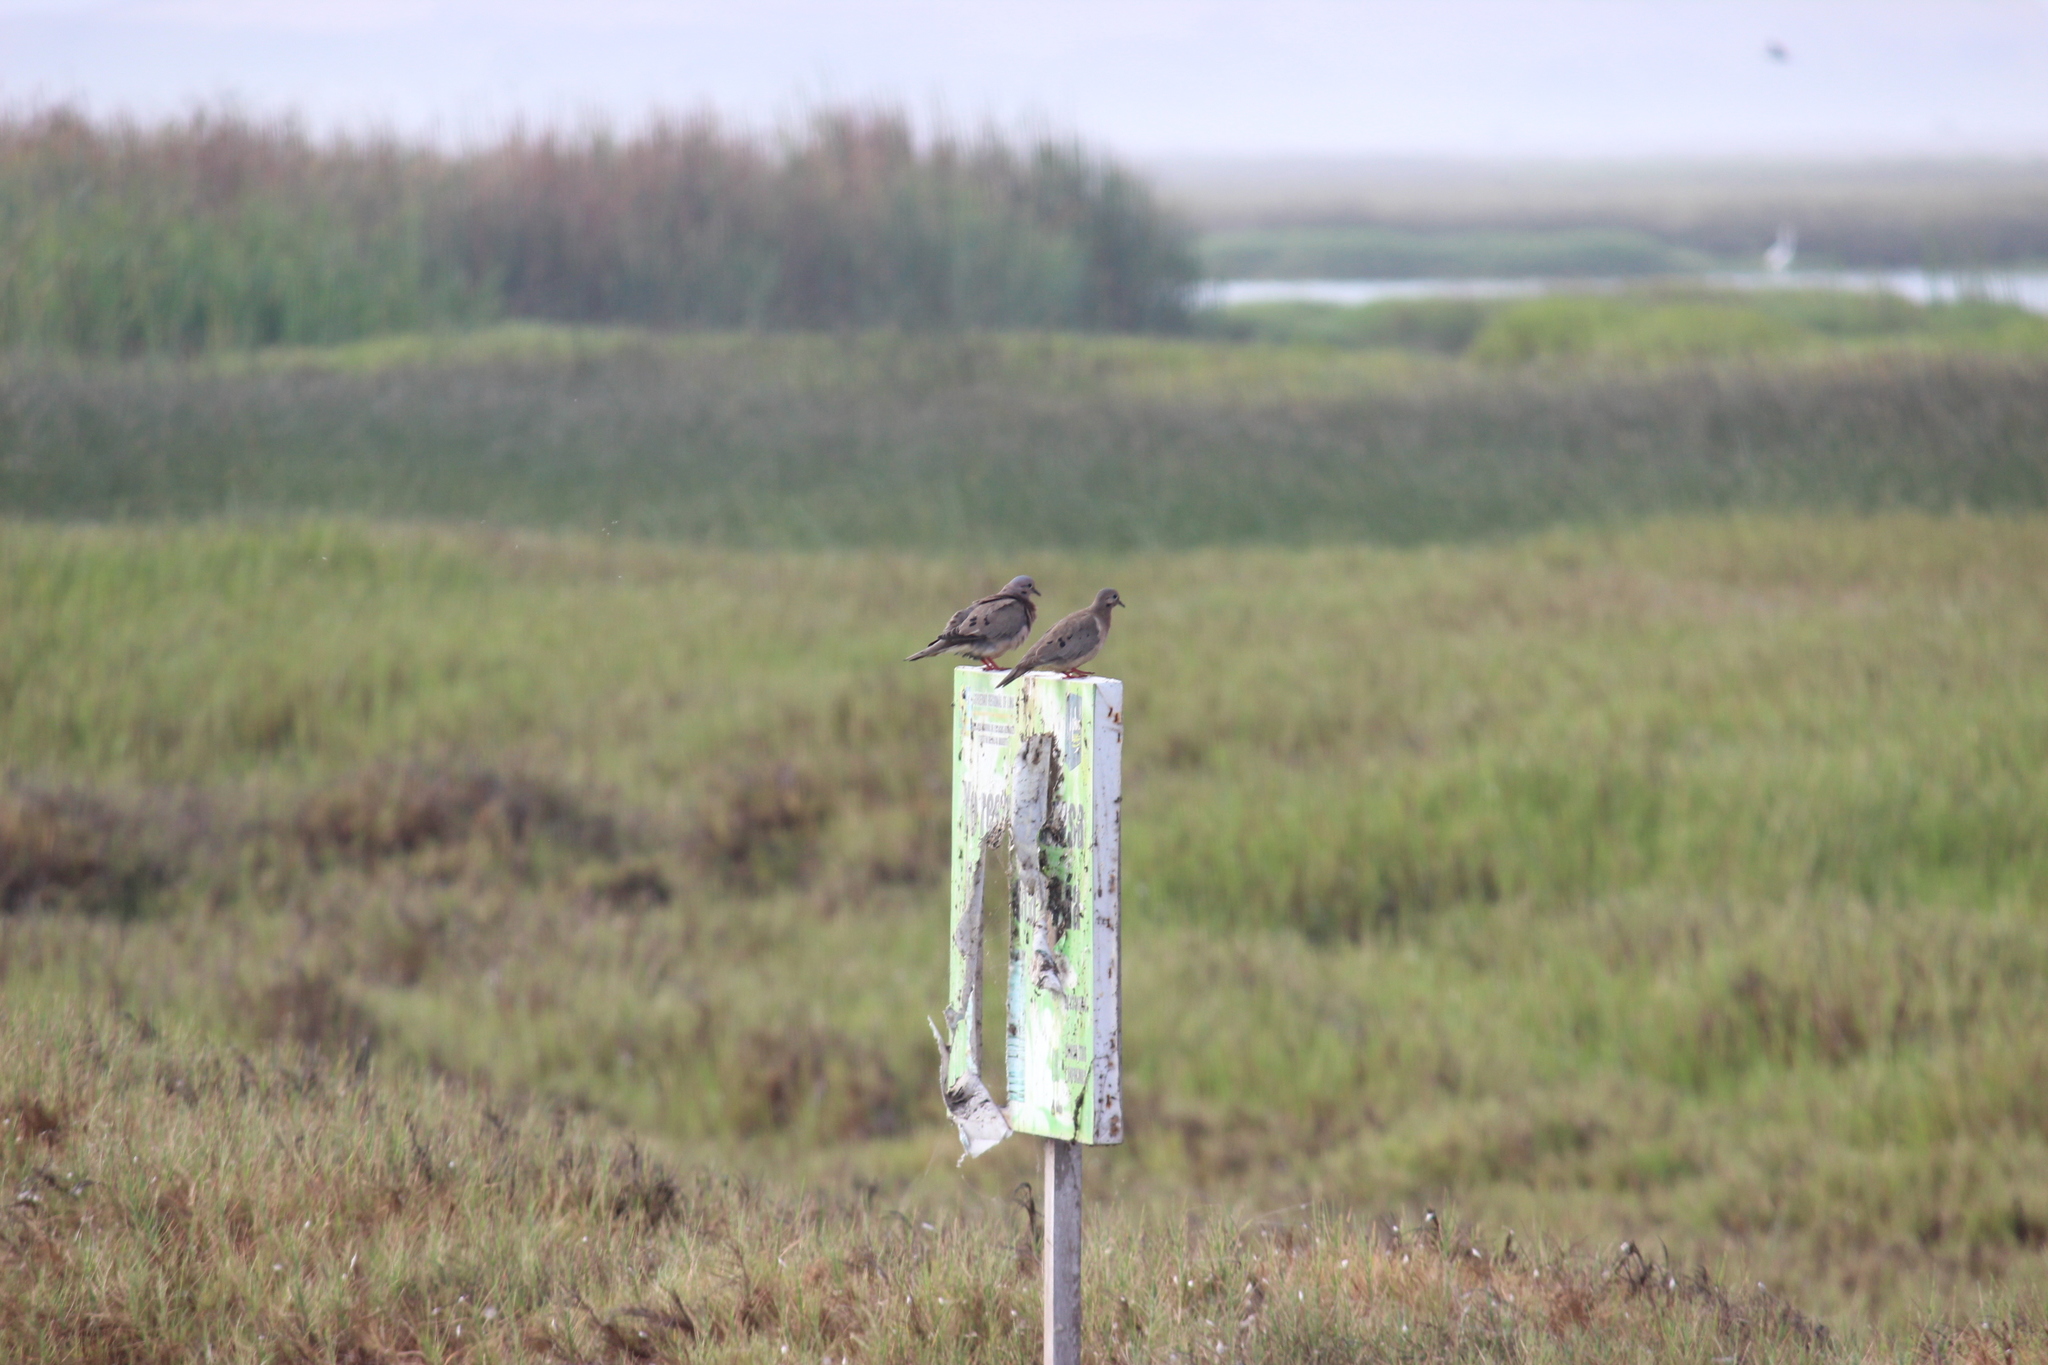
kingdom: Animalia
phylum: Chordata
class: Aves
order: Columbiformes
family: Columbidae
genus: Zenaida
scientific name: Zenaida auriculata
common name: Eared dove
